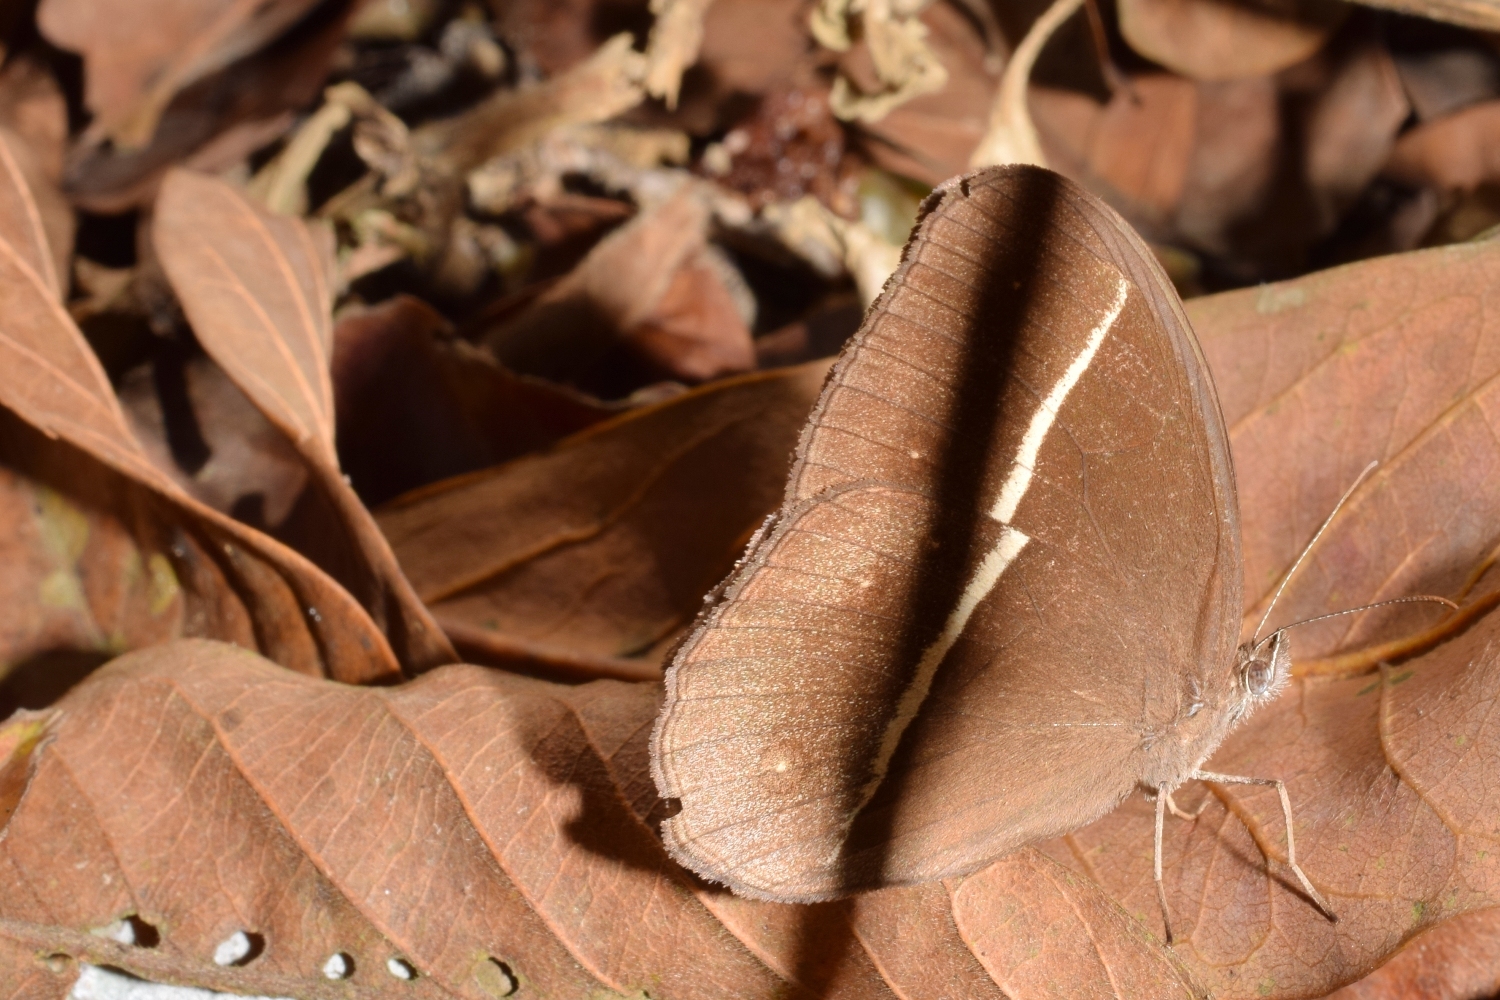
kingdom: Animalia
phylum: Arthropoda
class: Insecta
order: Lepidoptera
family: Nymphalidae
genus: Orsotriaena
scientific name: Orsotriaena medus
